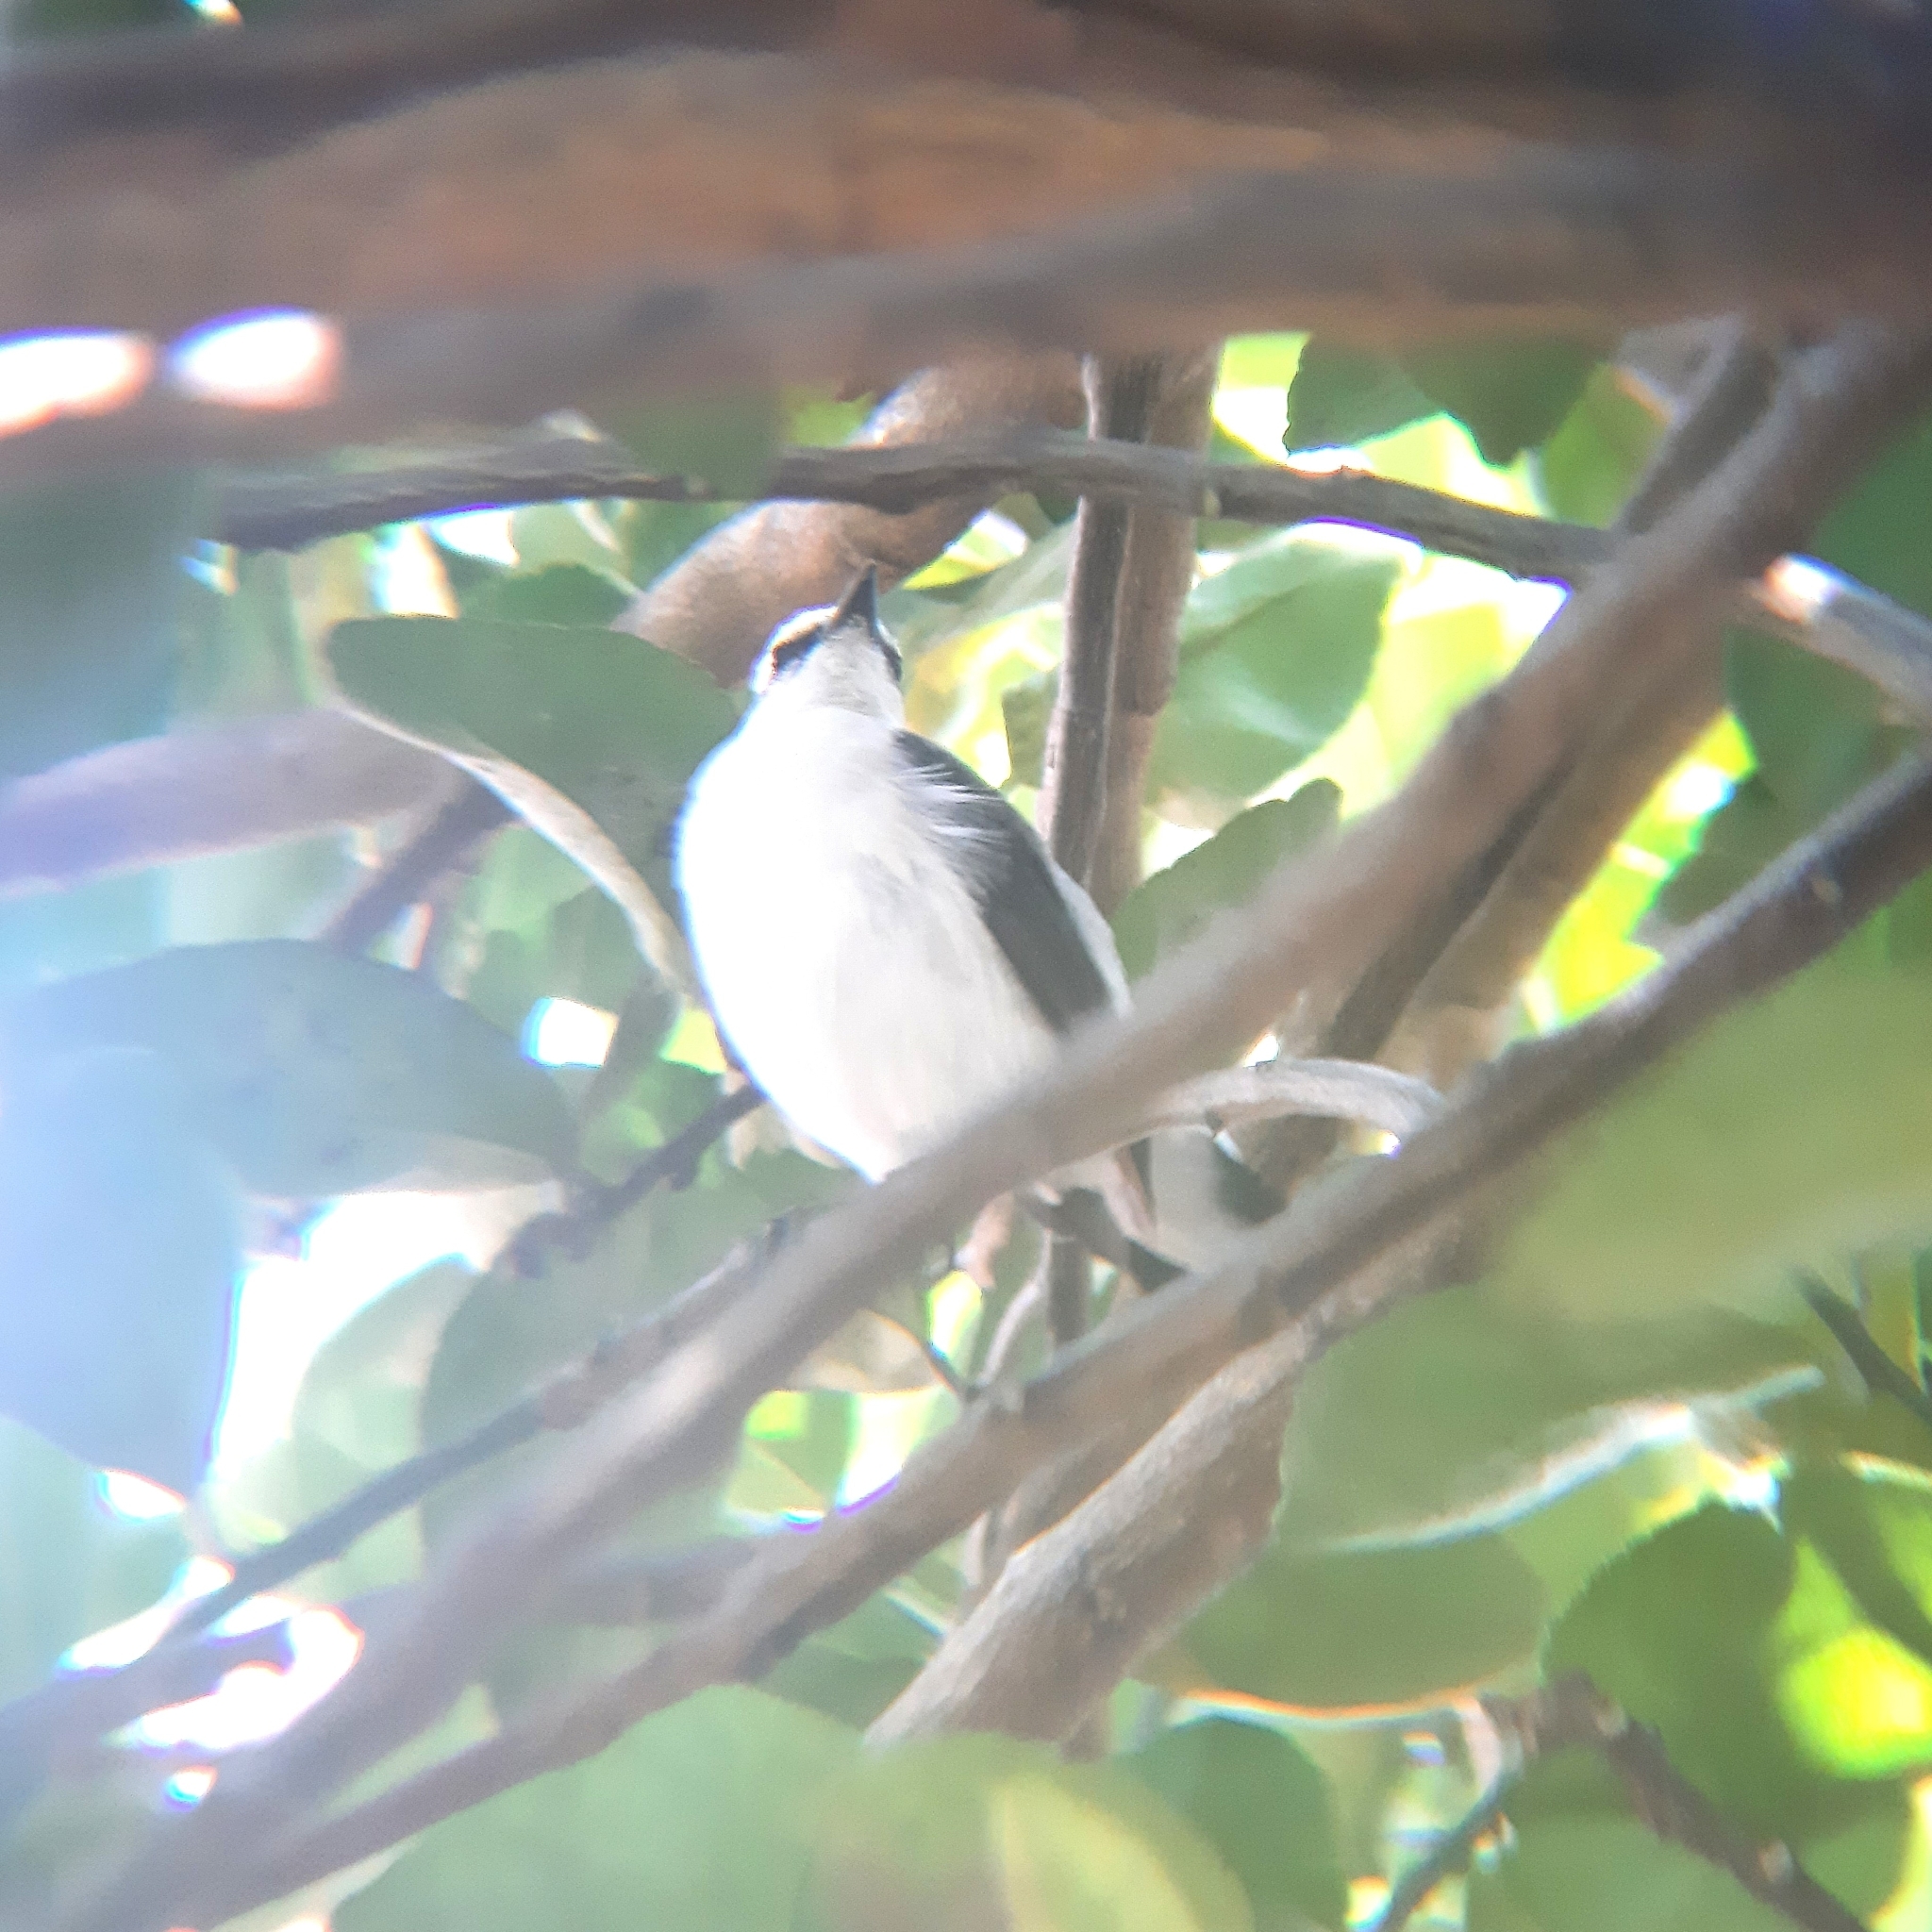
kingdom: Animalia
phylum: Chordata
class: Aves
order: Passeriformes
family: Tyrannidae
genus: Fluvicola
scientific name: Fluvicola nengeta
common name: Masked water tyrant
